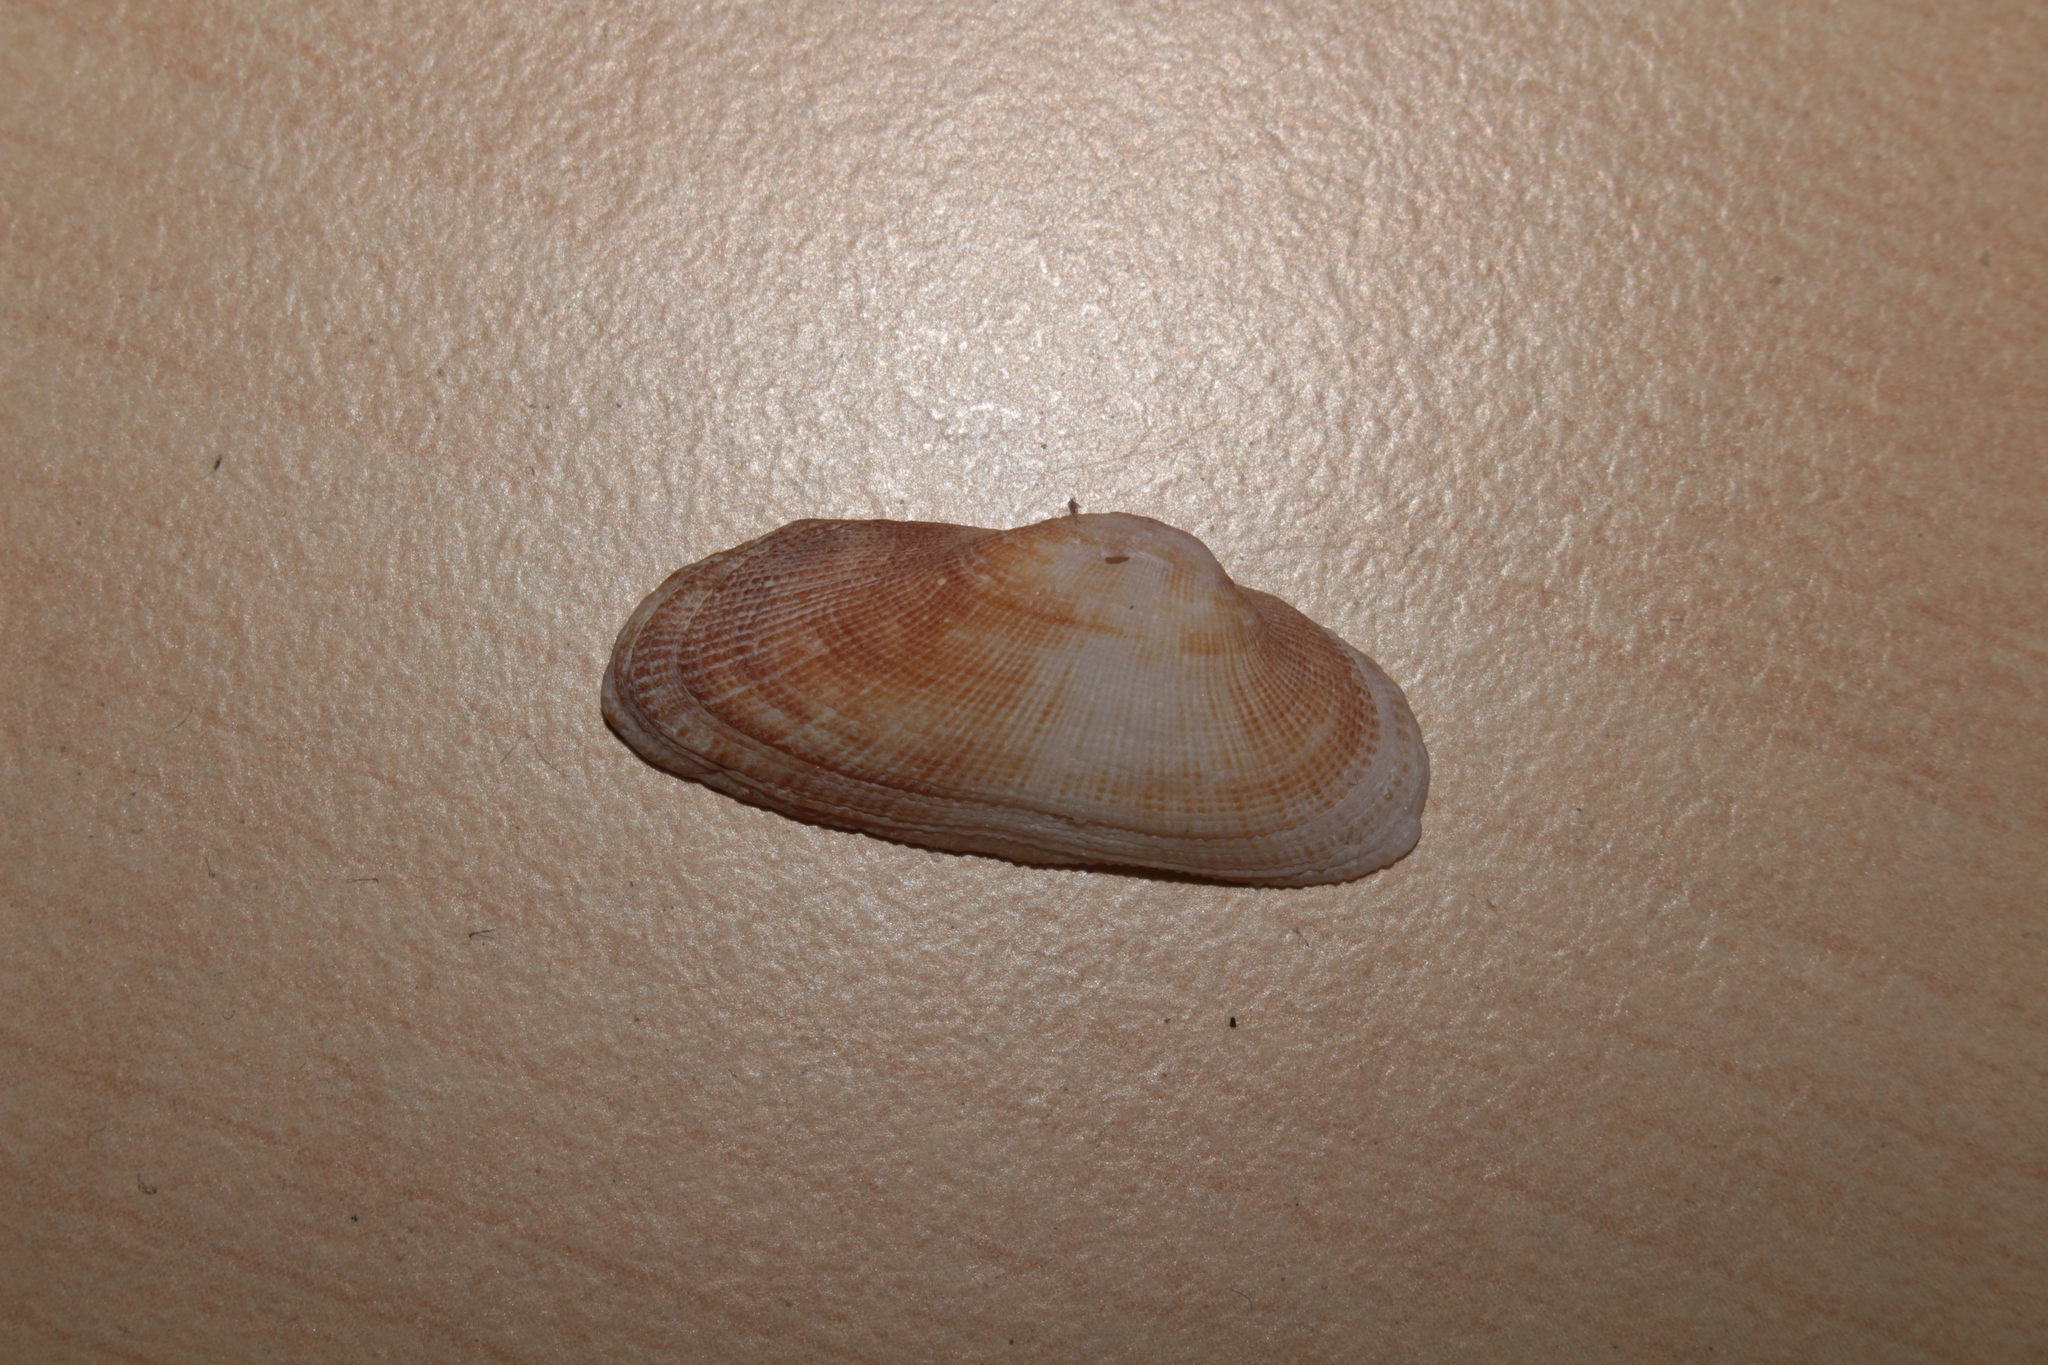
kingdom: Animalia
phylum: Mollusca
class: Bivalvia
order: Arcida
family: Arcidae
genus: Barbatia
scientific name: Barbatia barbata
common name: Bearded ark
